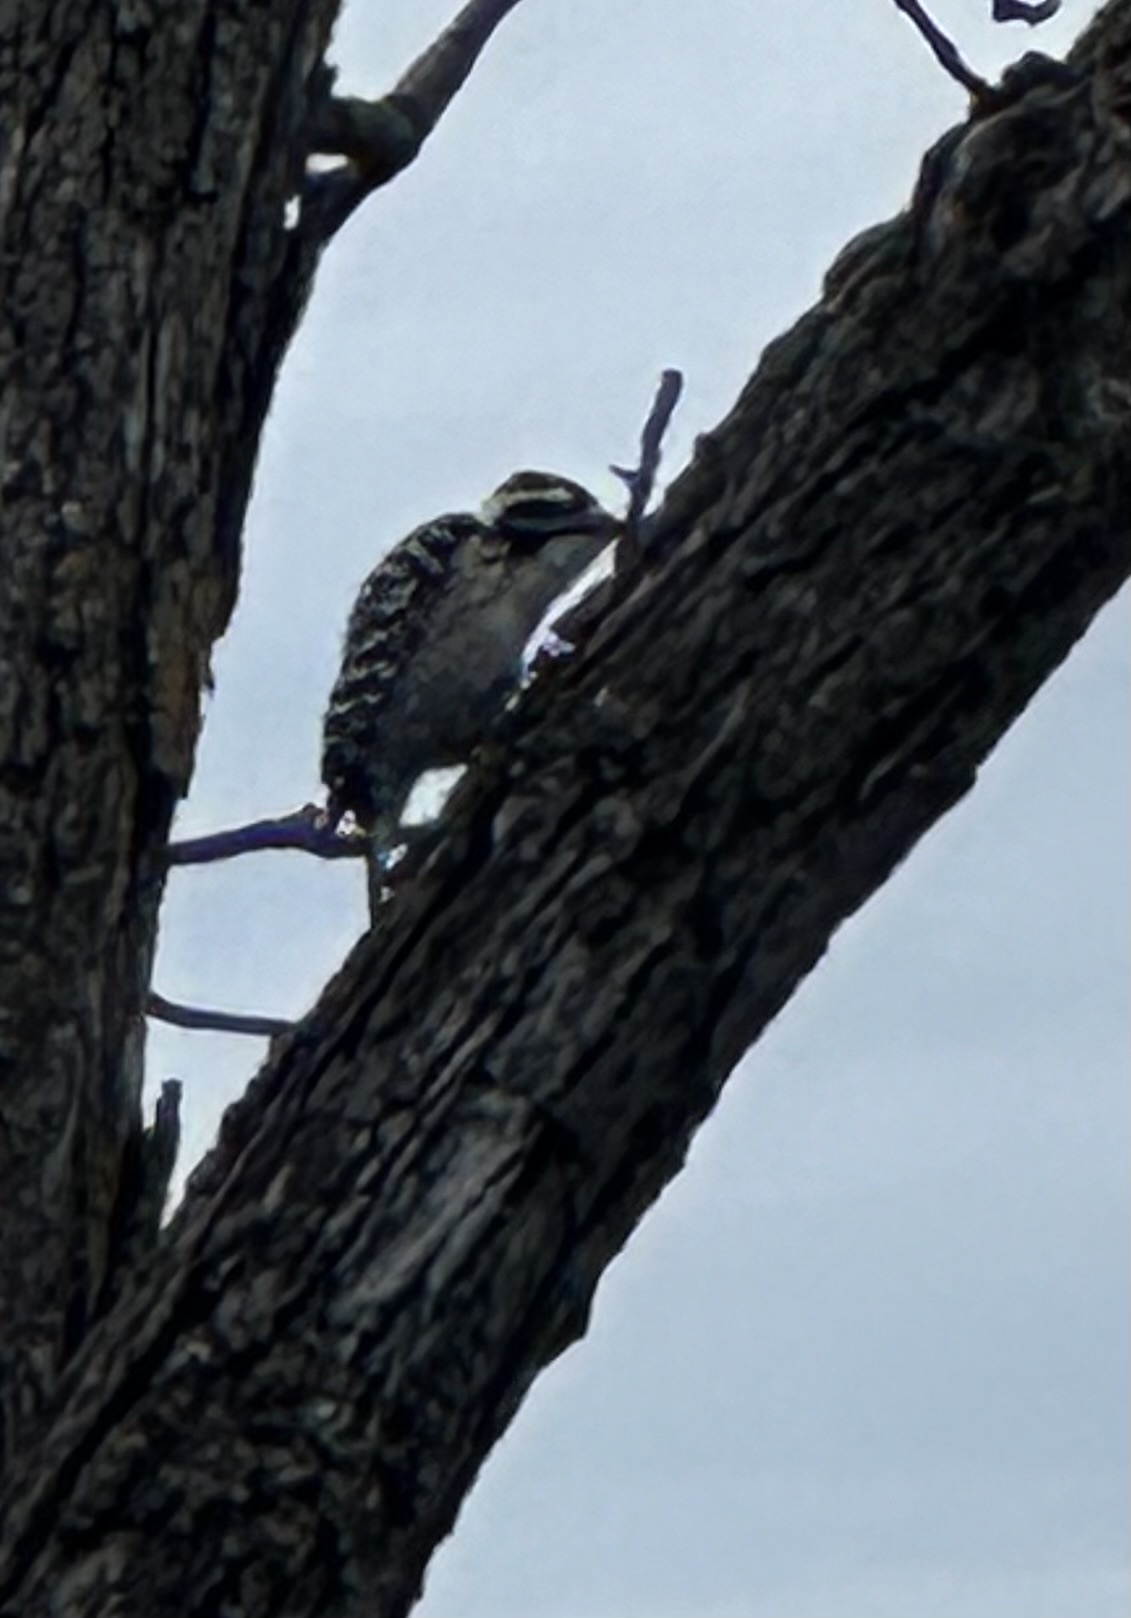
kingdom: Animalia
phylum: Chordata
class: Aves
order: Piciformes
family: Picidae
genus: Dryobates
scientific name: Dryobates nuttallii
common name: Nuttall's woodpecker
